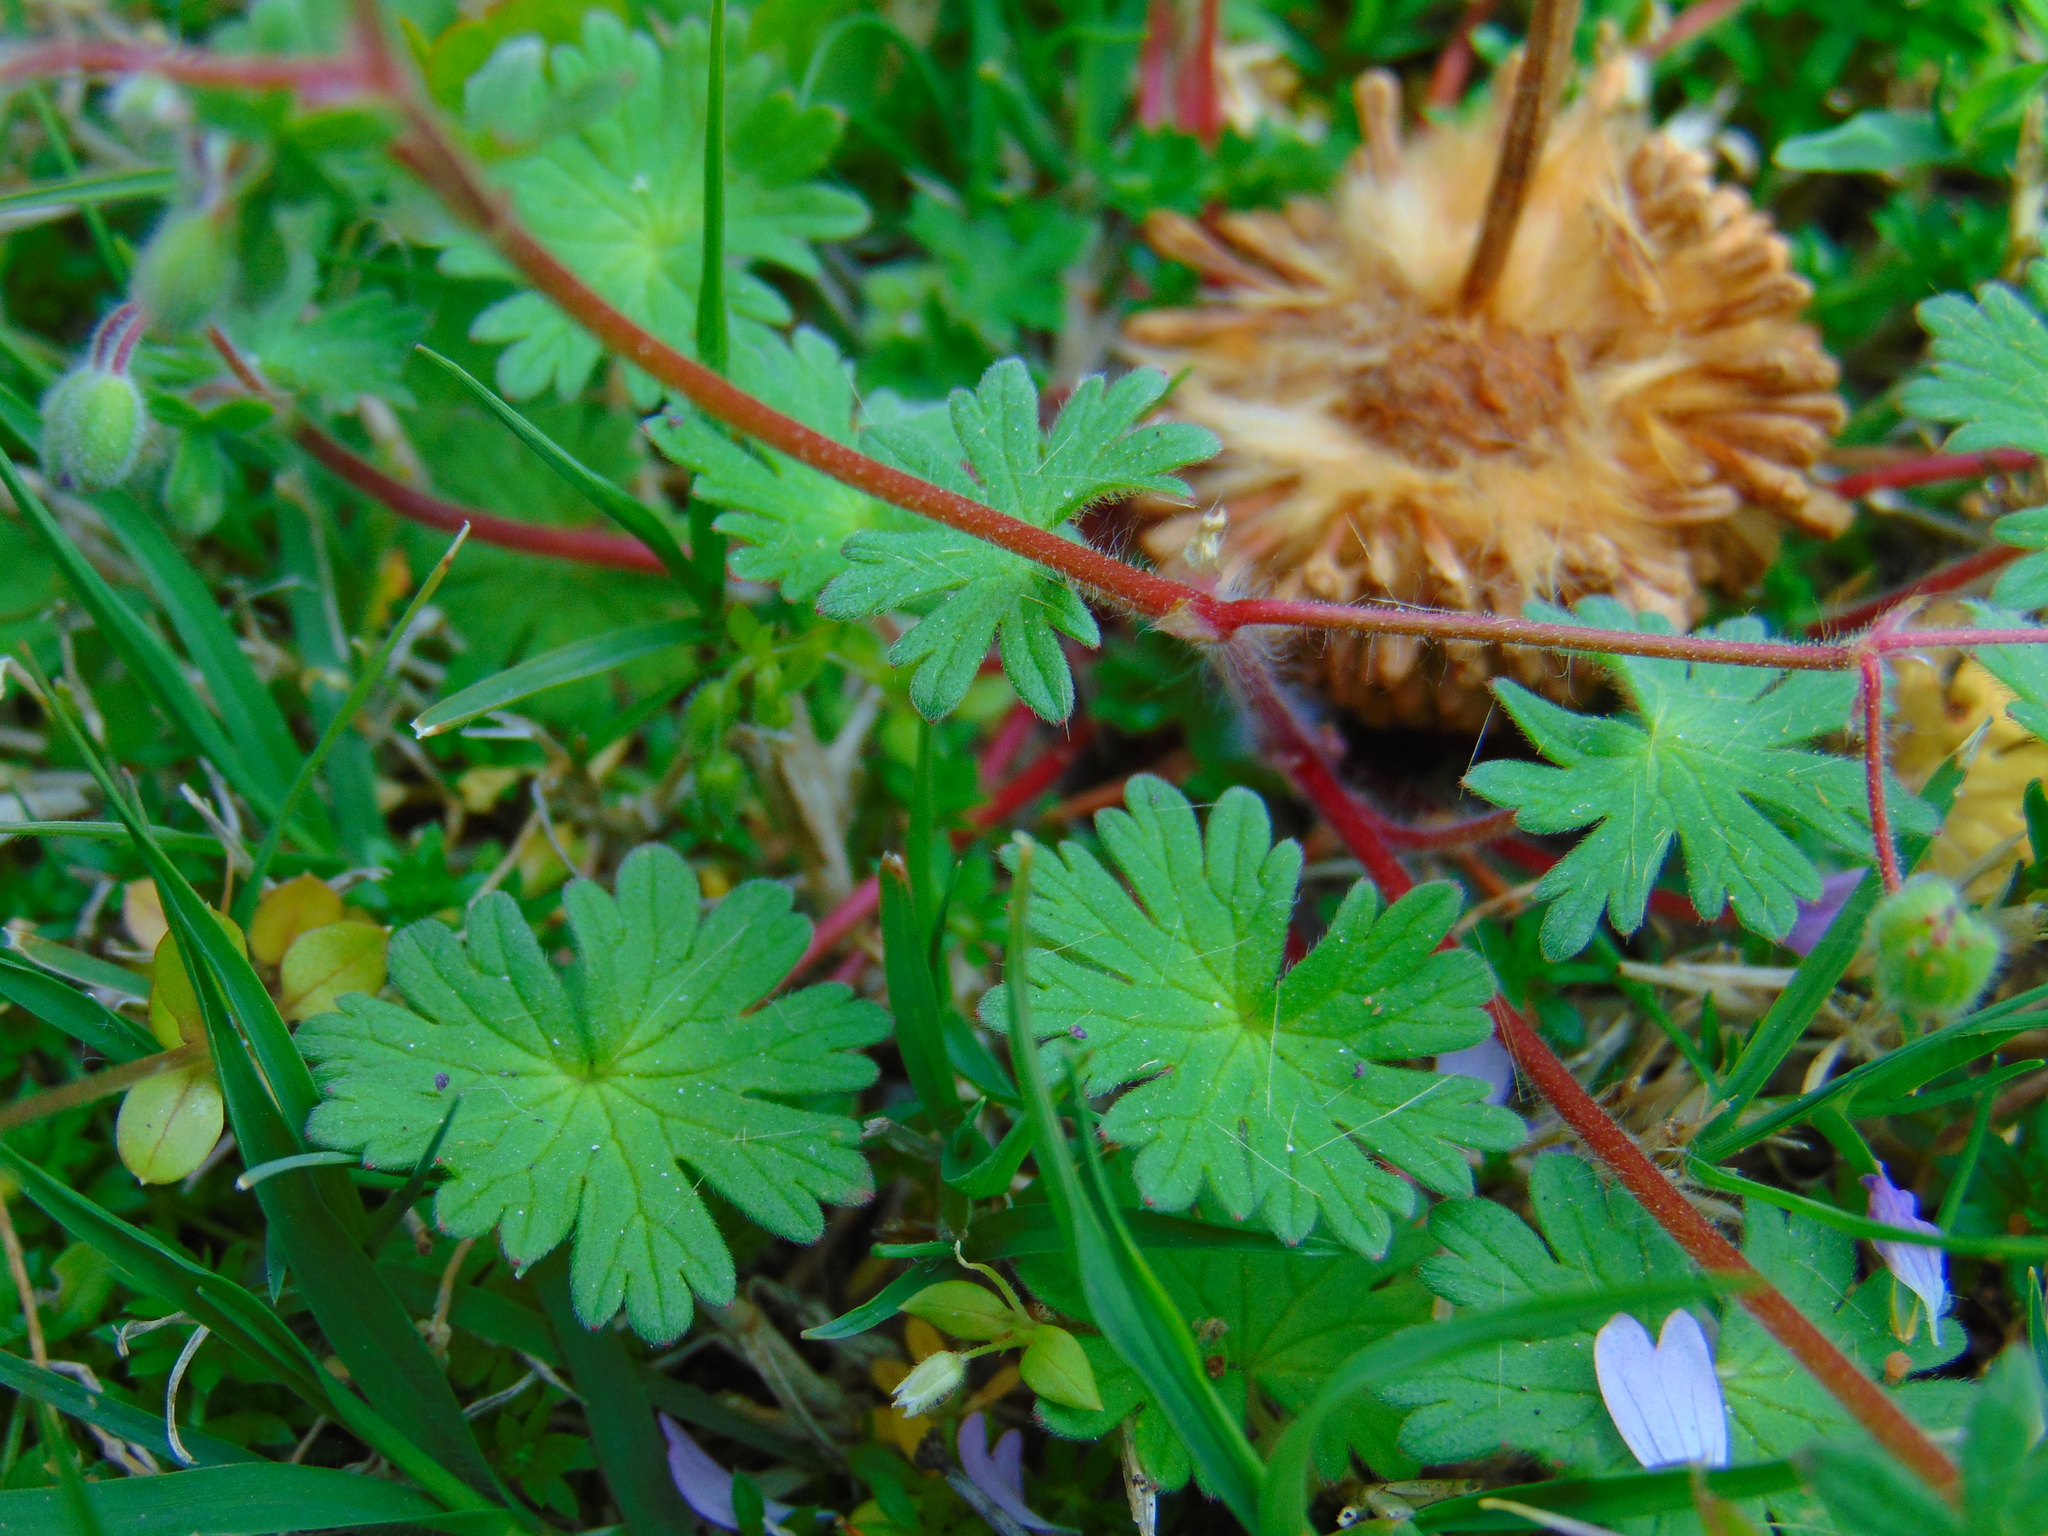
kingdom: Plantae
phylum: Tracheophyta
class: Magnoliopsida
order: Geraniales
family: Geraniaceae
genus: Geranium
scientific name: Geranium molle
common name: Dove's-foot crane's-bill
